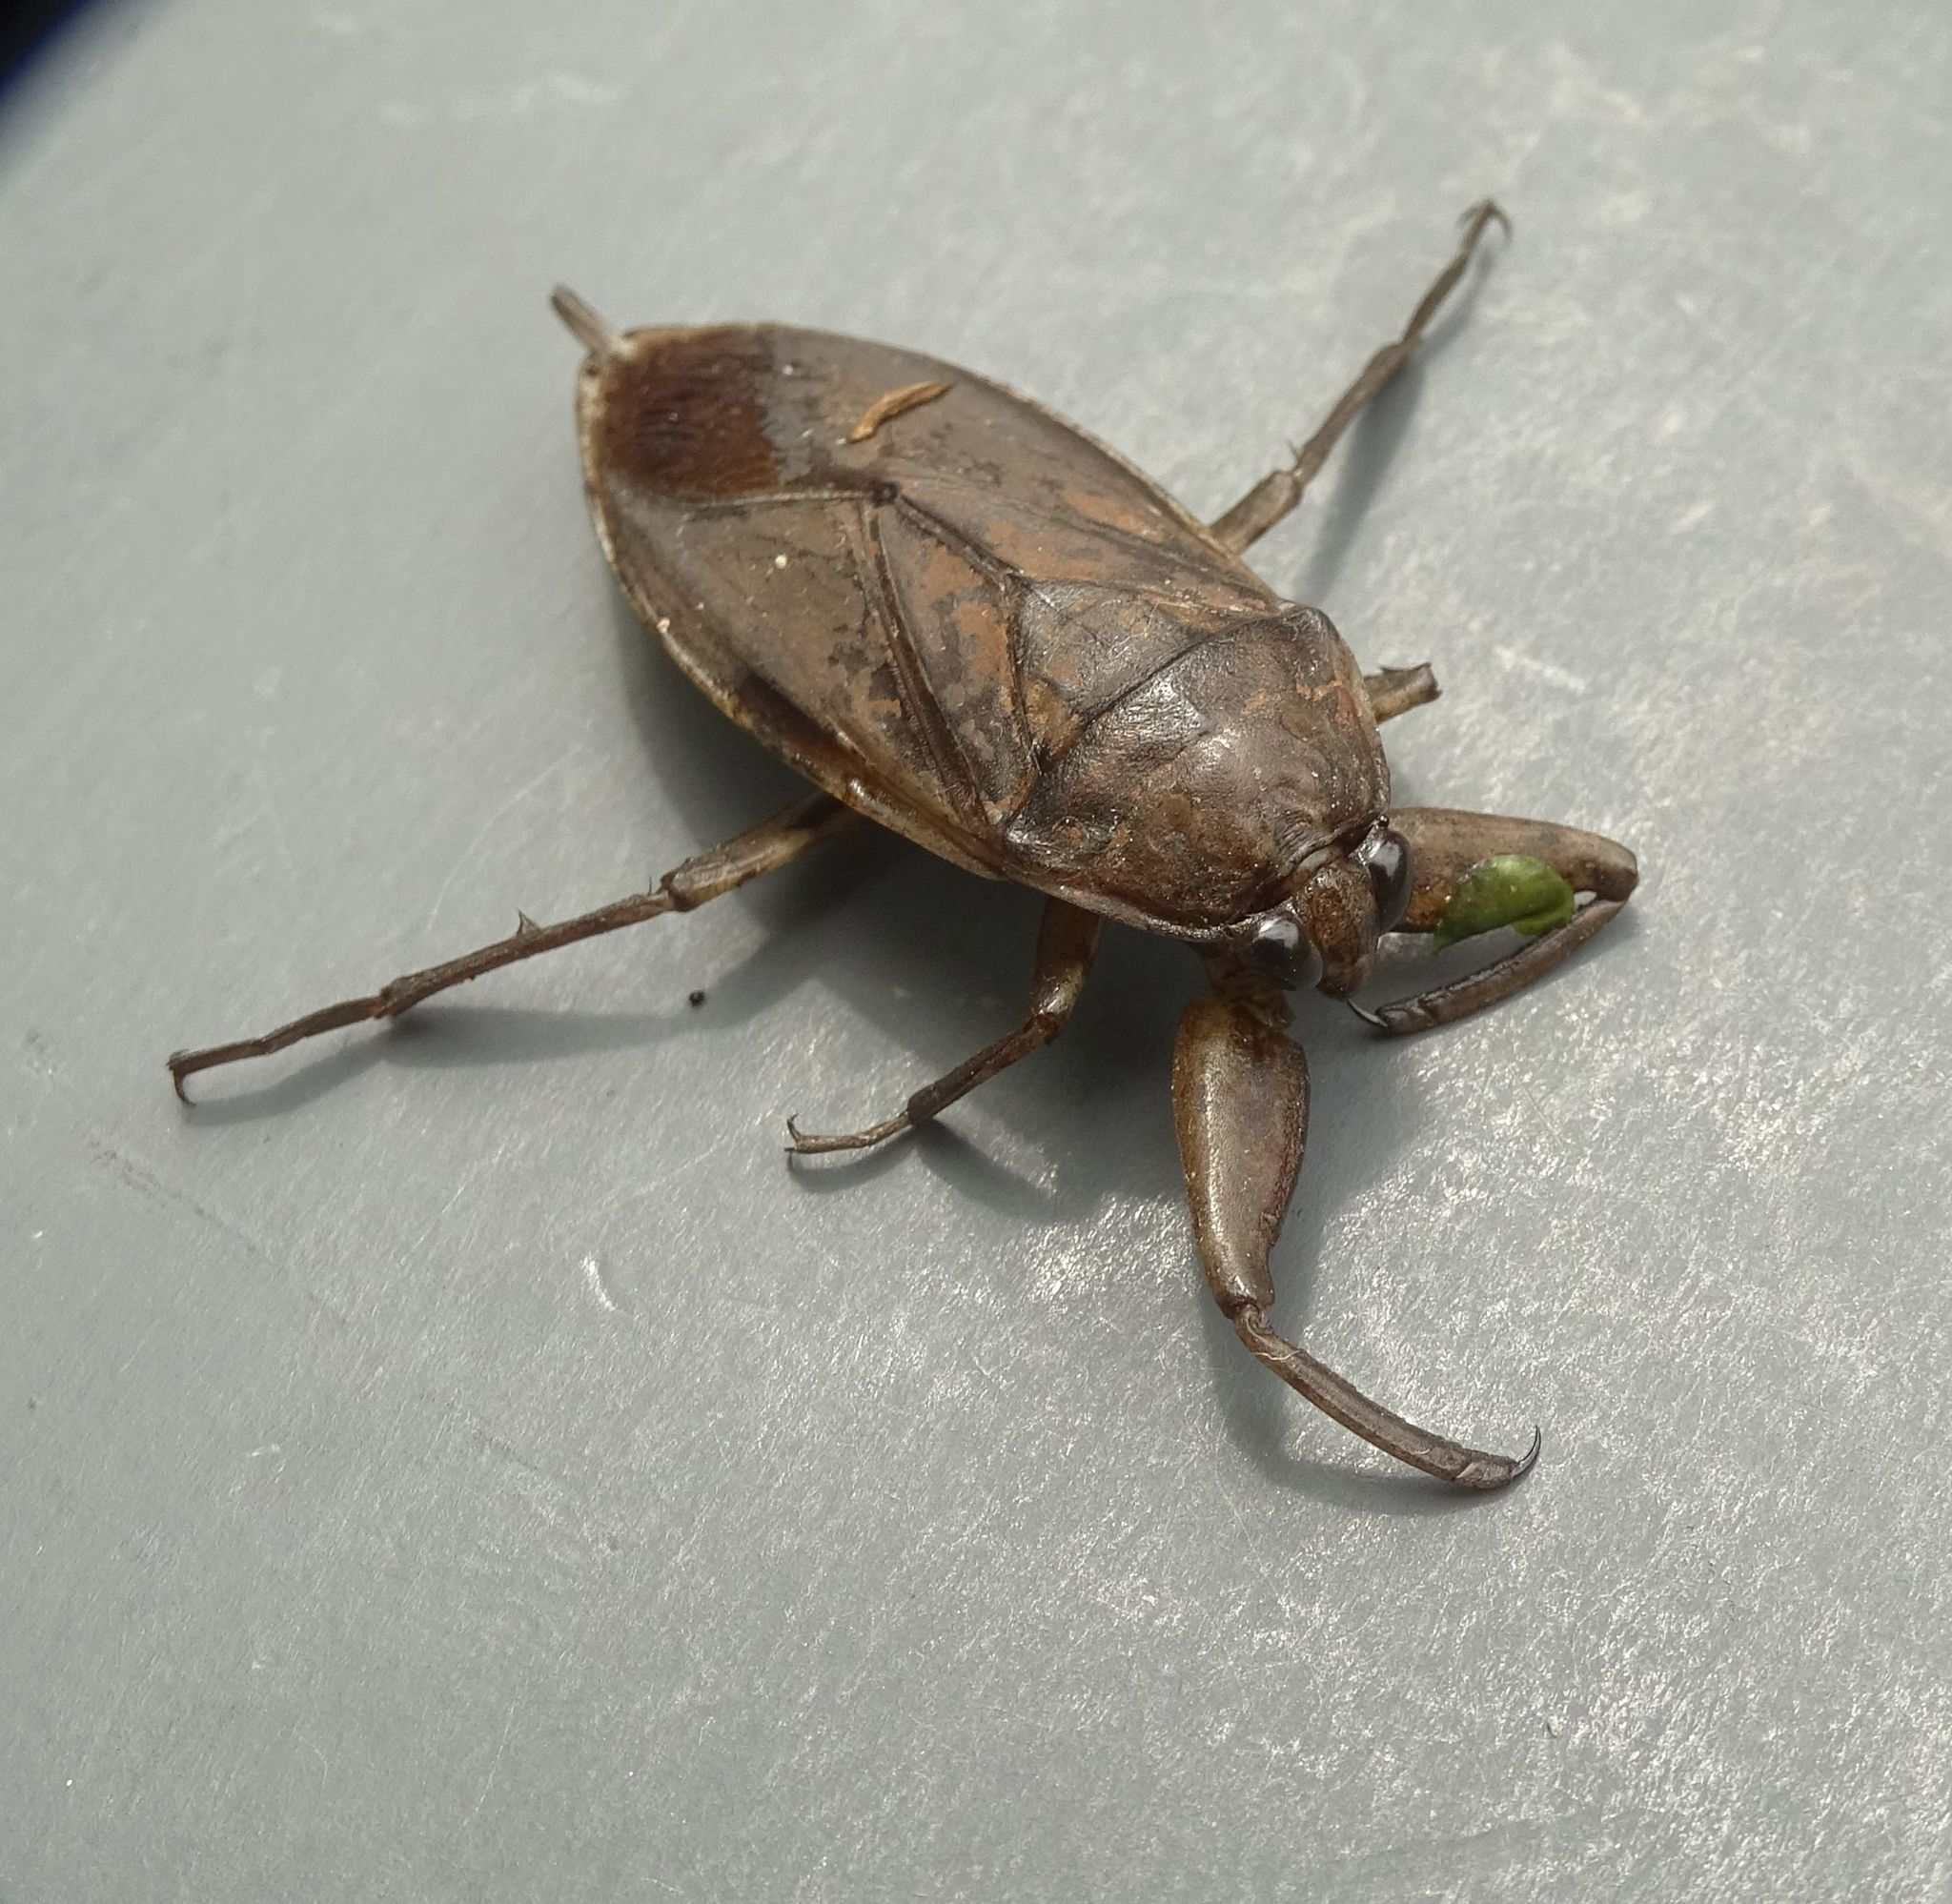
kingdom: Animalia
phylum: Arthropoda
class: Insecta
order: Hemiptera
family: Belostomatidae
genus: Lethocerus
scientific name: Lethocerus americanus
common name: Giant water bug
